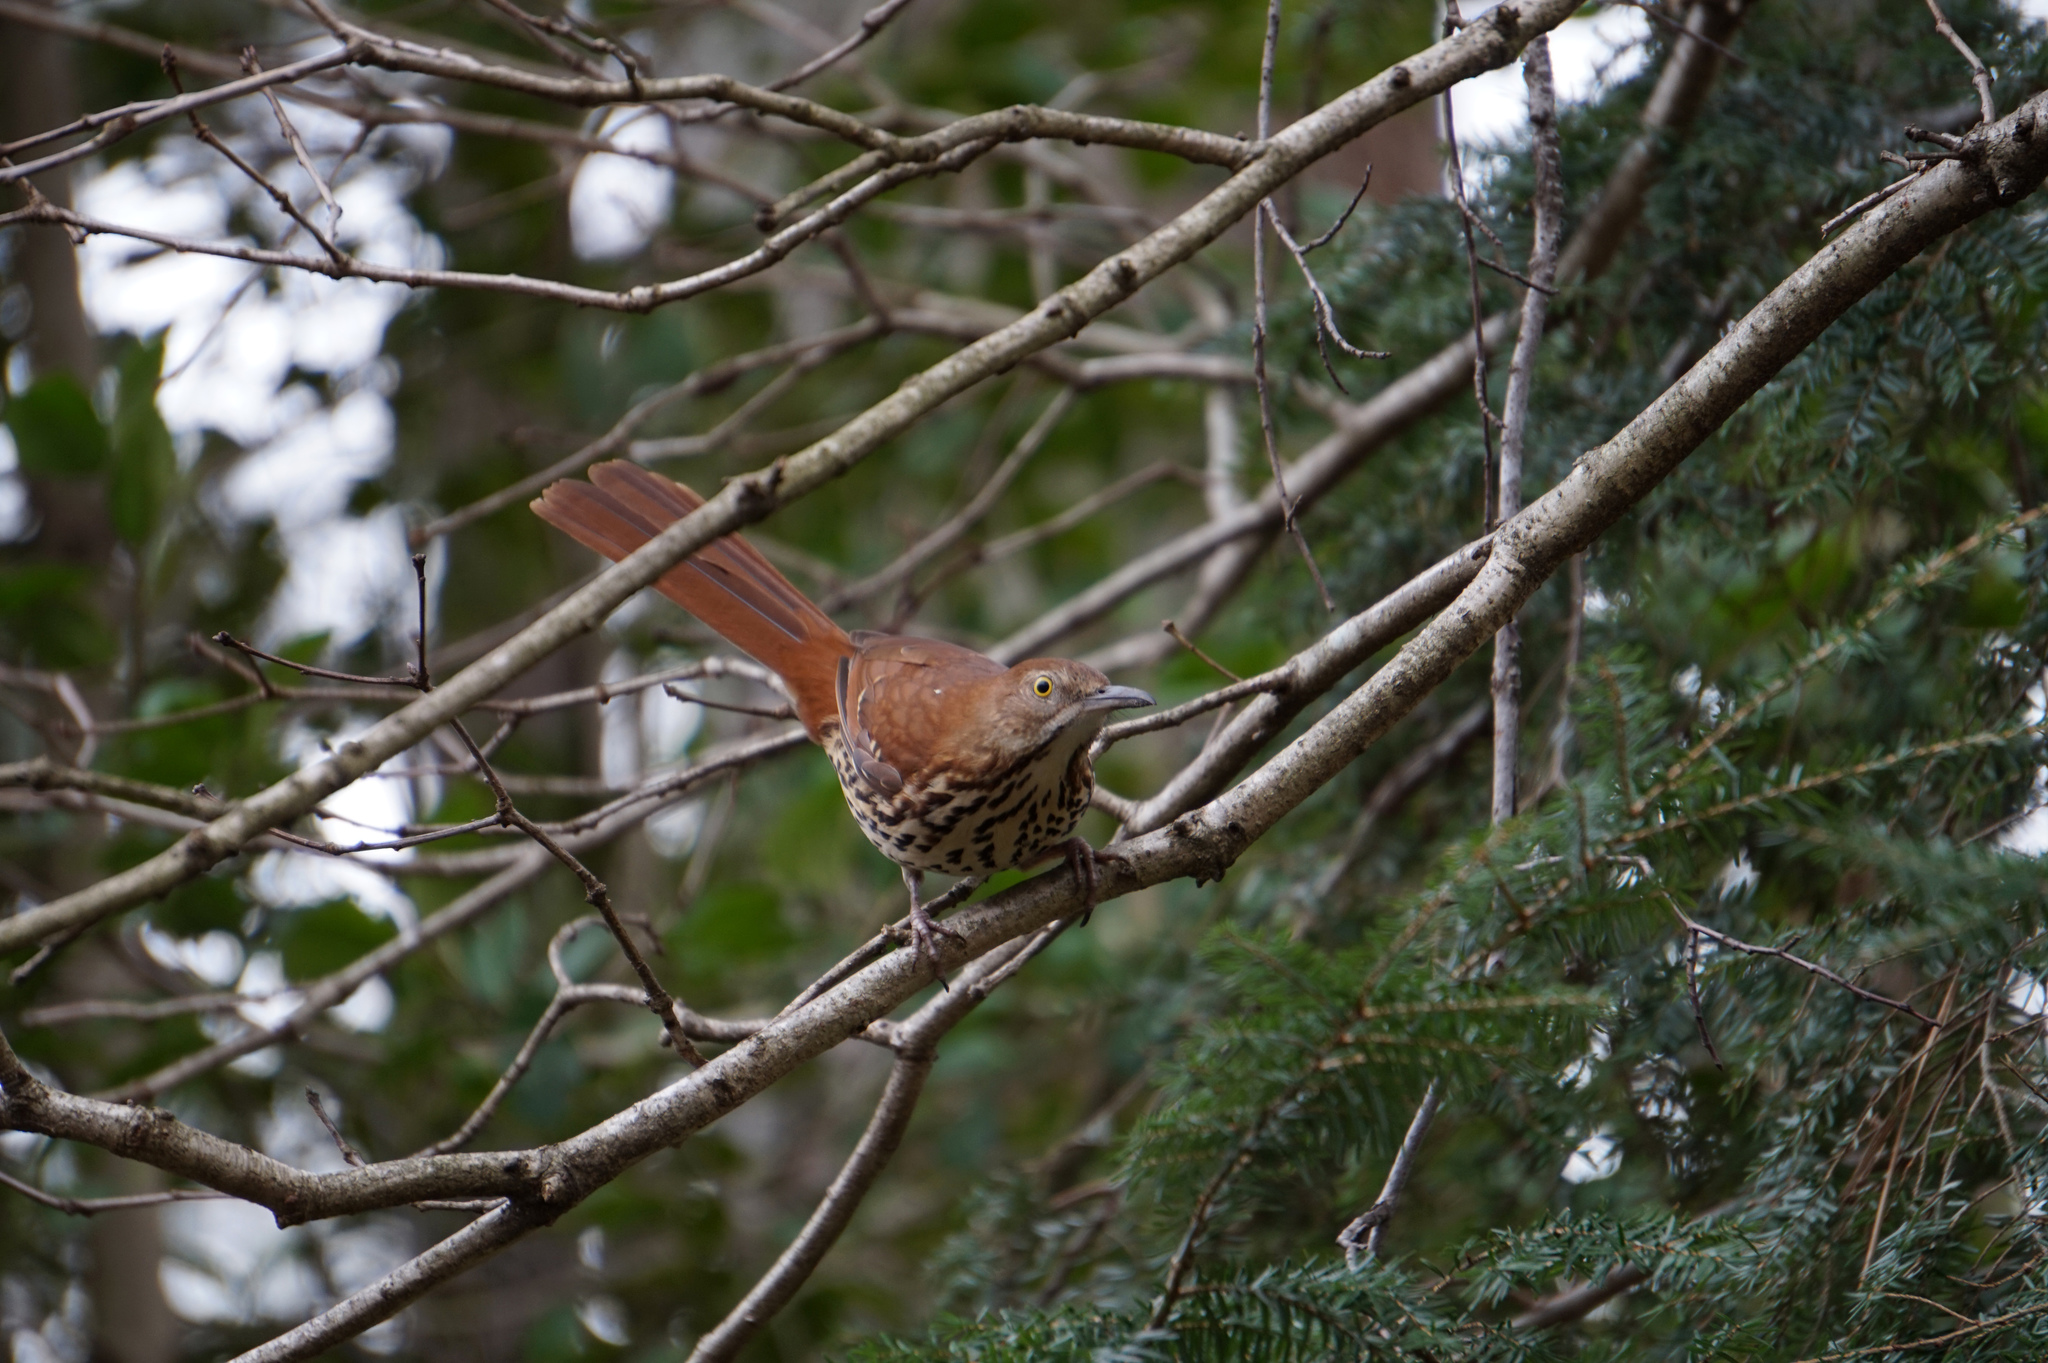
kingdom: Animalia
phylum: Chordata
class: Aves
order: Passeriformes
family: Mimidae
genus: Toxostoma
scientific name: Toxostoma rufum
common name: Brown thrasher
